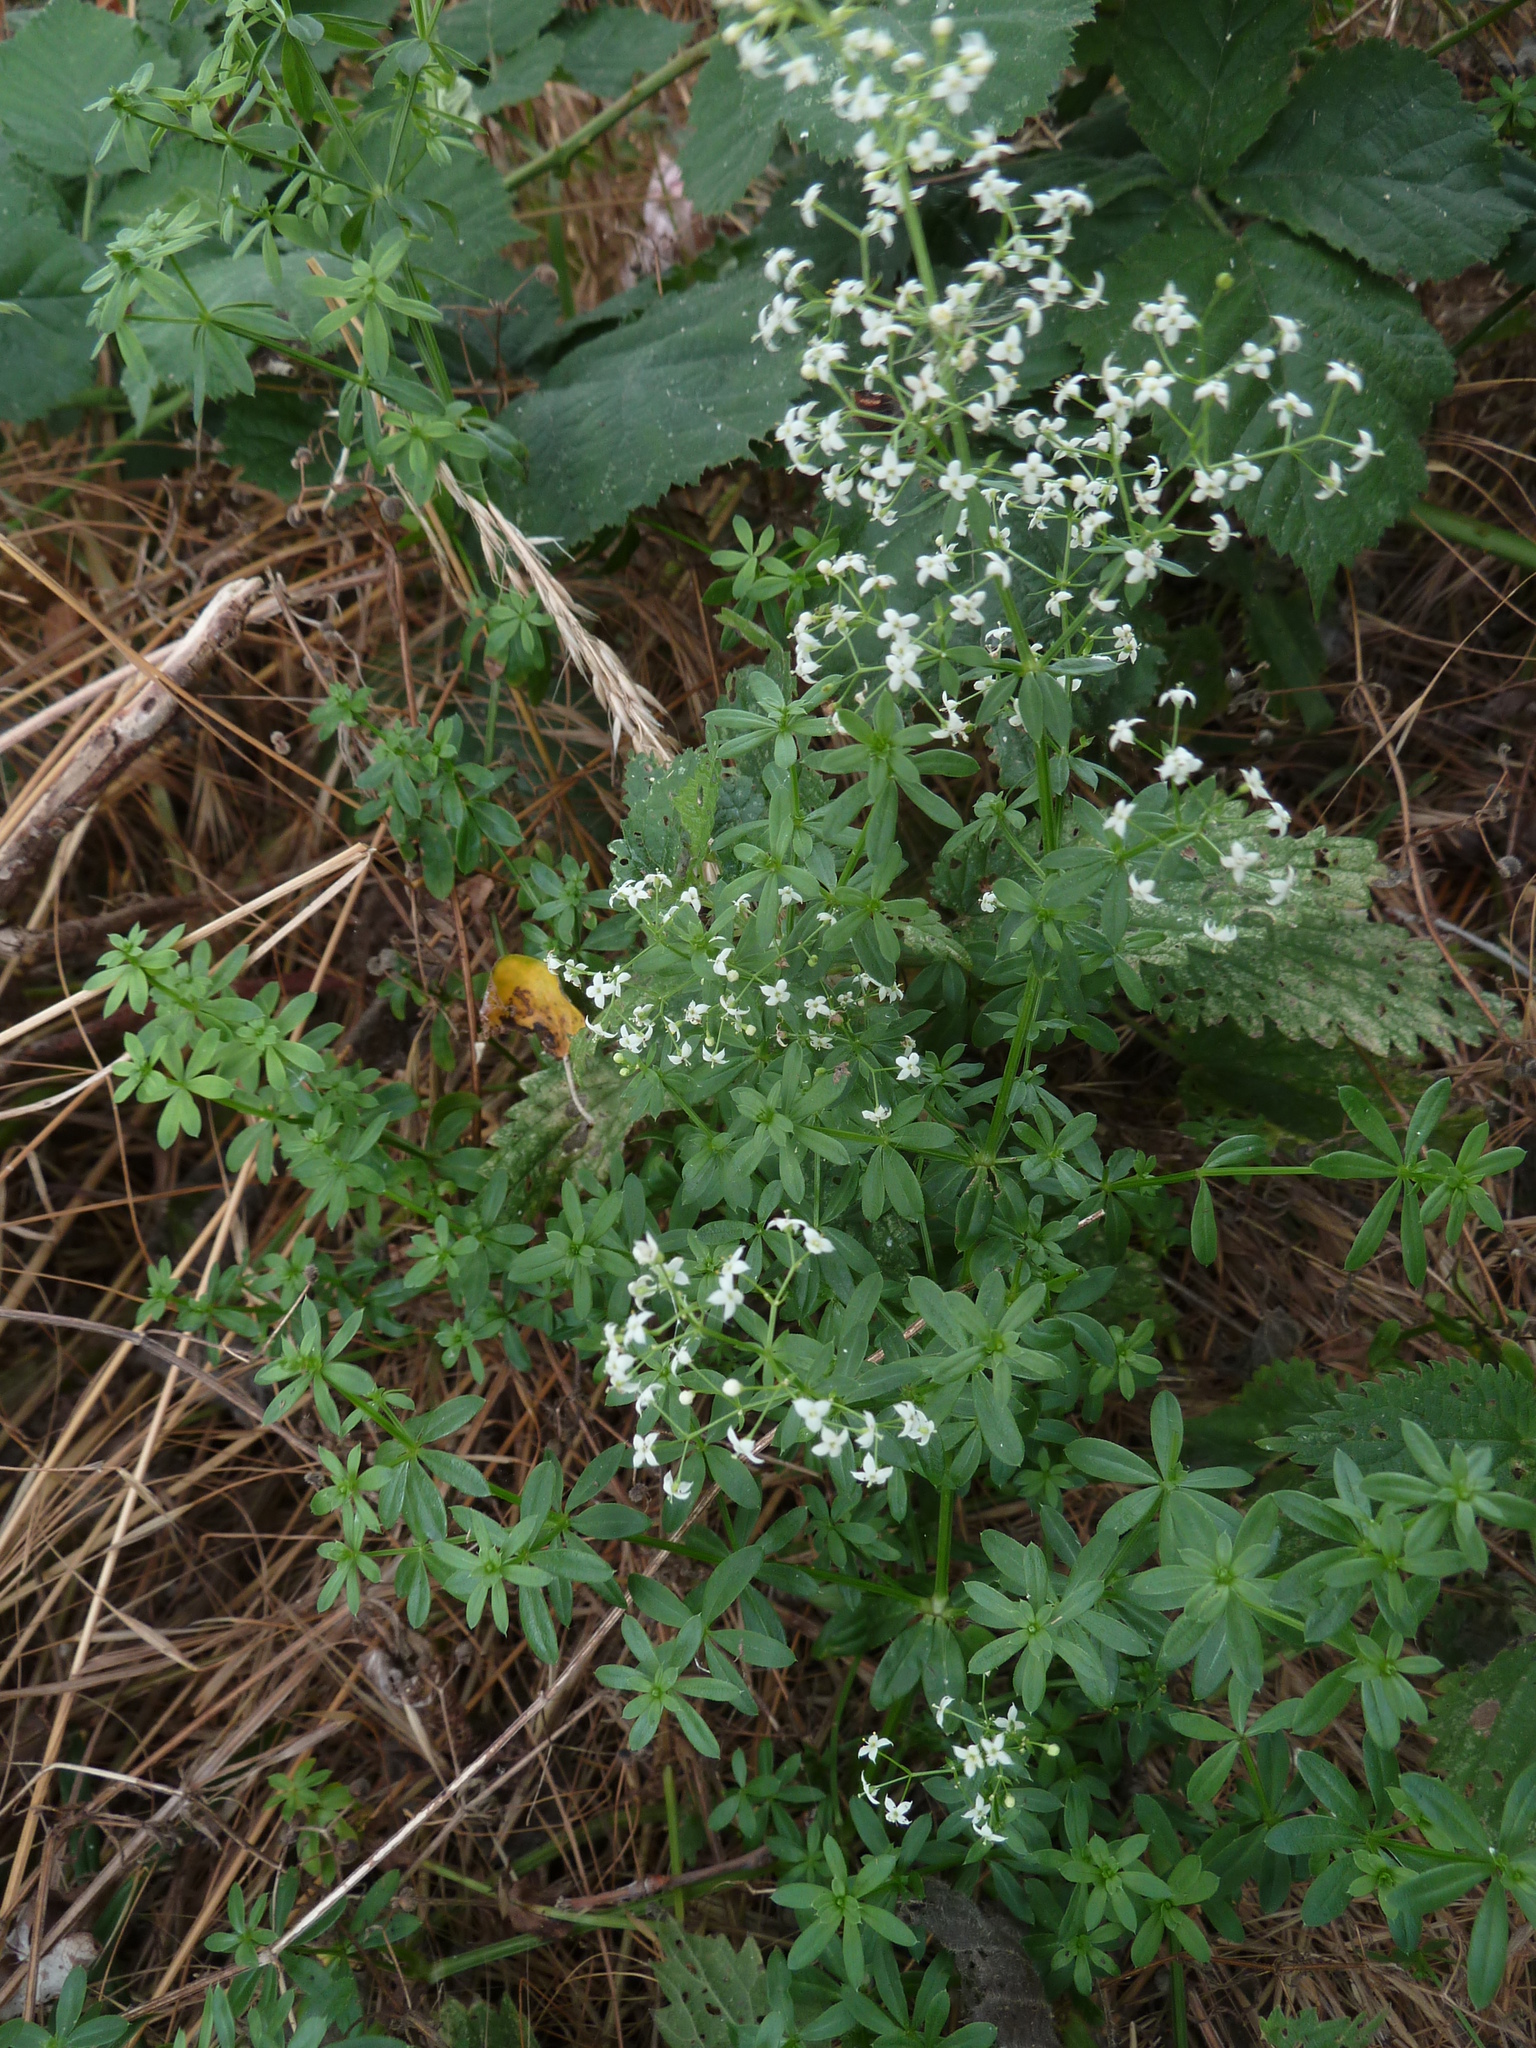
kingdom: Plantae
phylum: Tracheophyta
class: Magnoliopsida
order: Gentianales
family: Rubiaceae
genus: Galium
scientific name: Galium mollugo
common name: Hedge bedstraw
